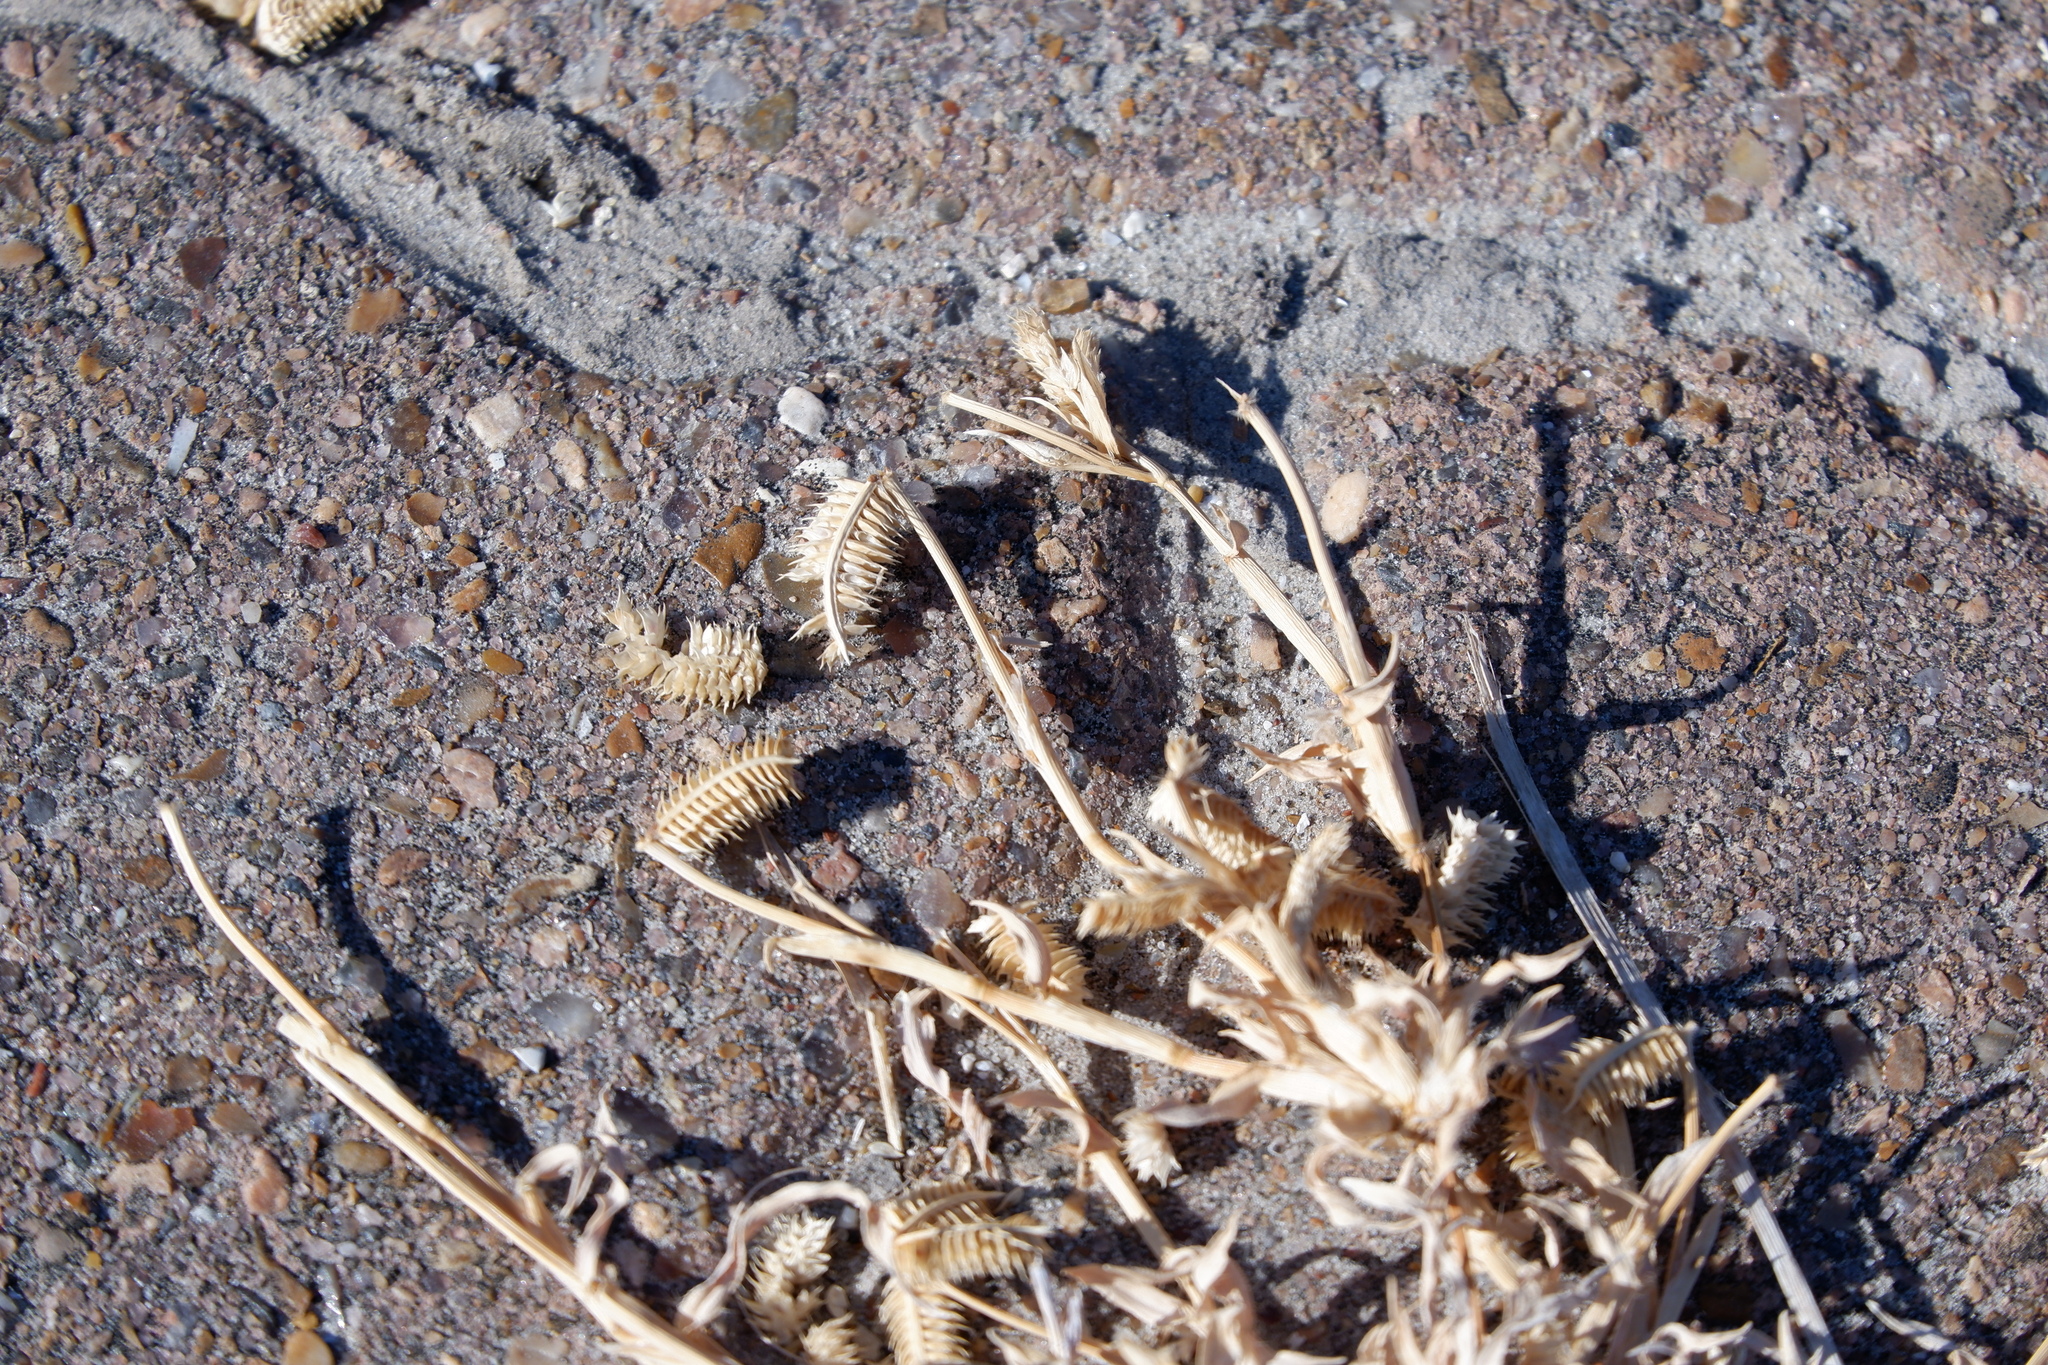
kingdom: Plantae
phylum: Tracheophyta
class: Liliopsida
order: Poales
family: Poaceae
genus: Dactyloctenium
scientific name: Dactyloctenium aegyptium
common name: Egyptian grass
